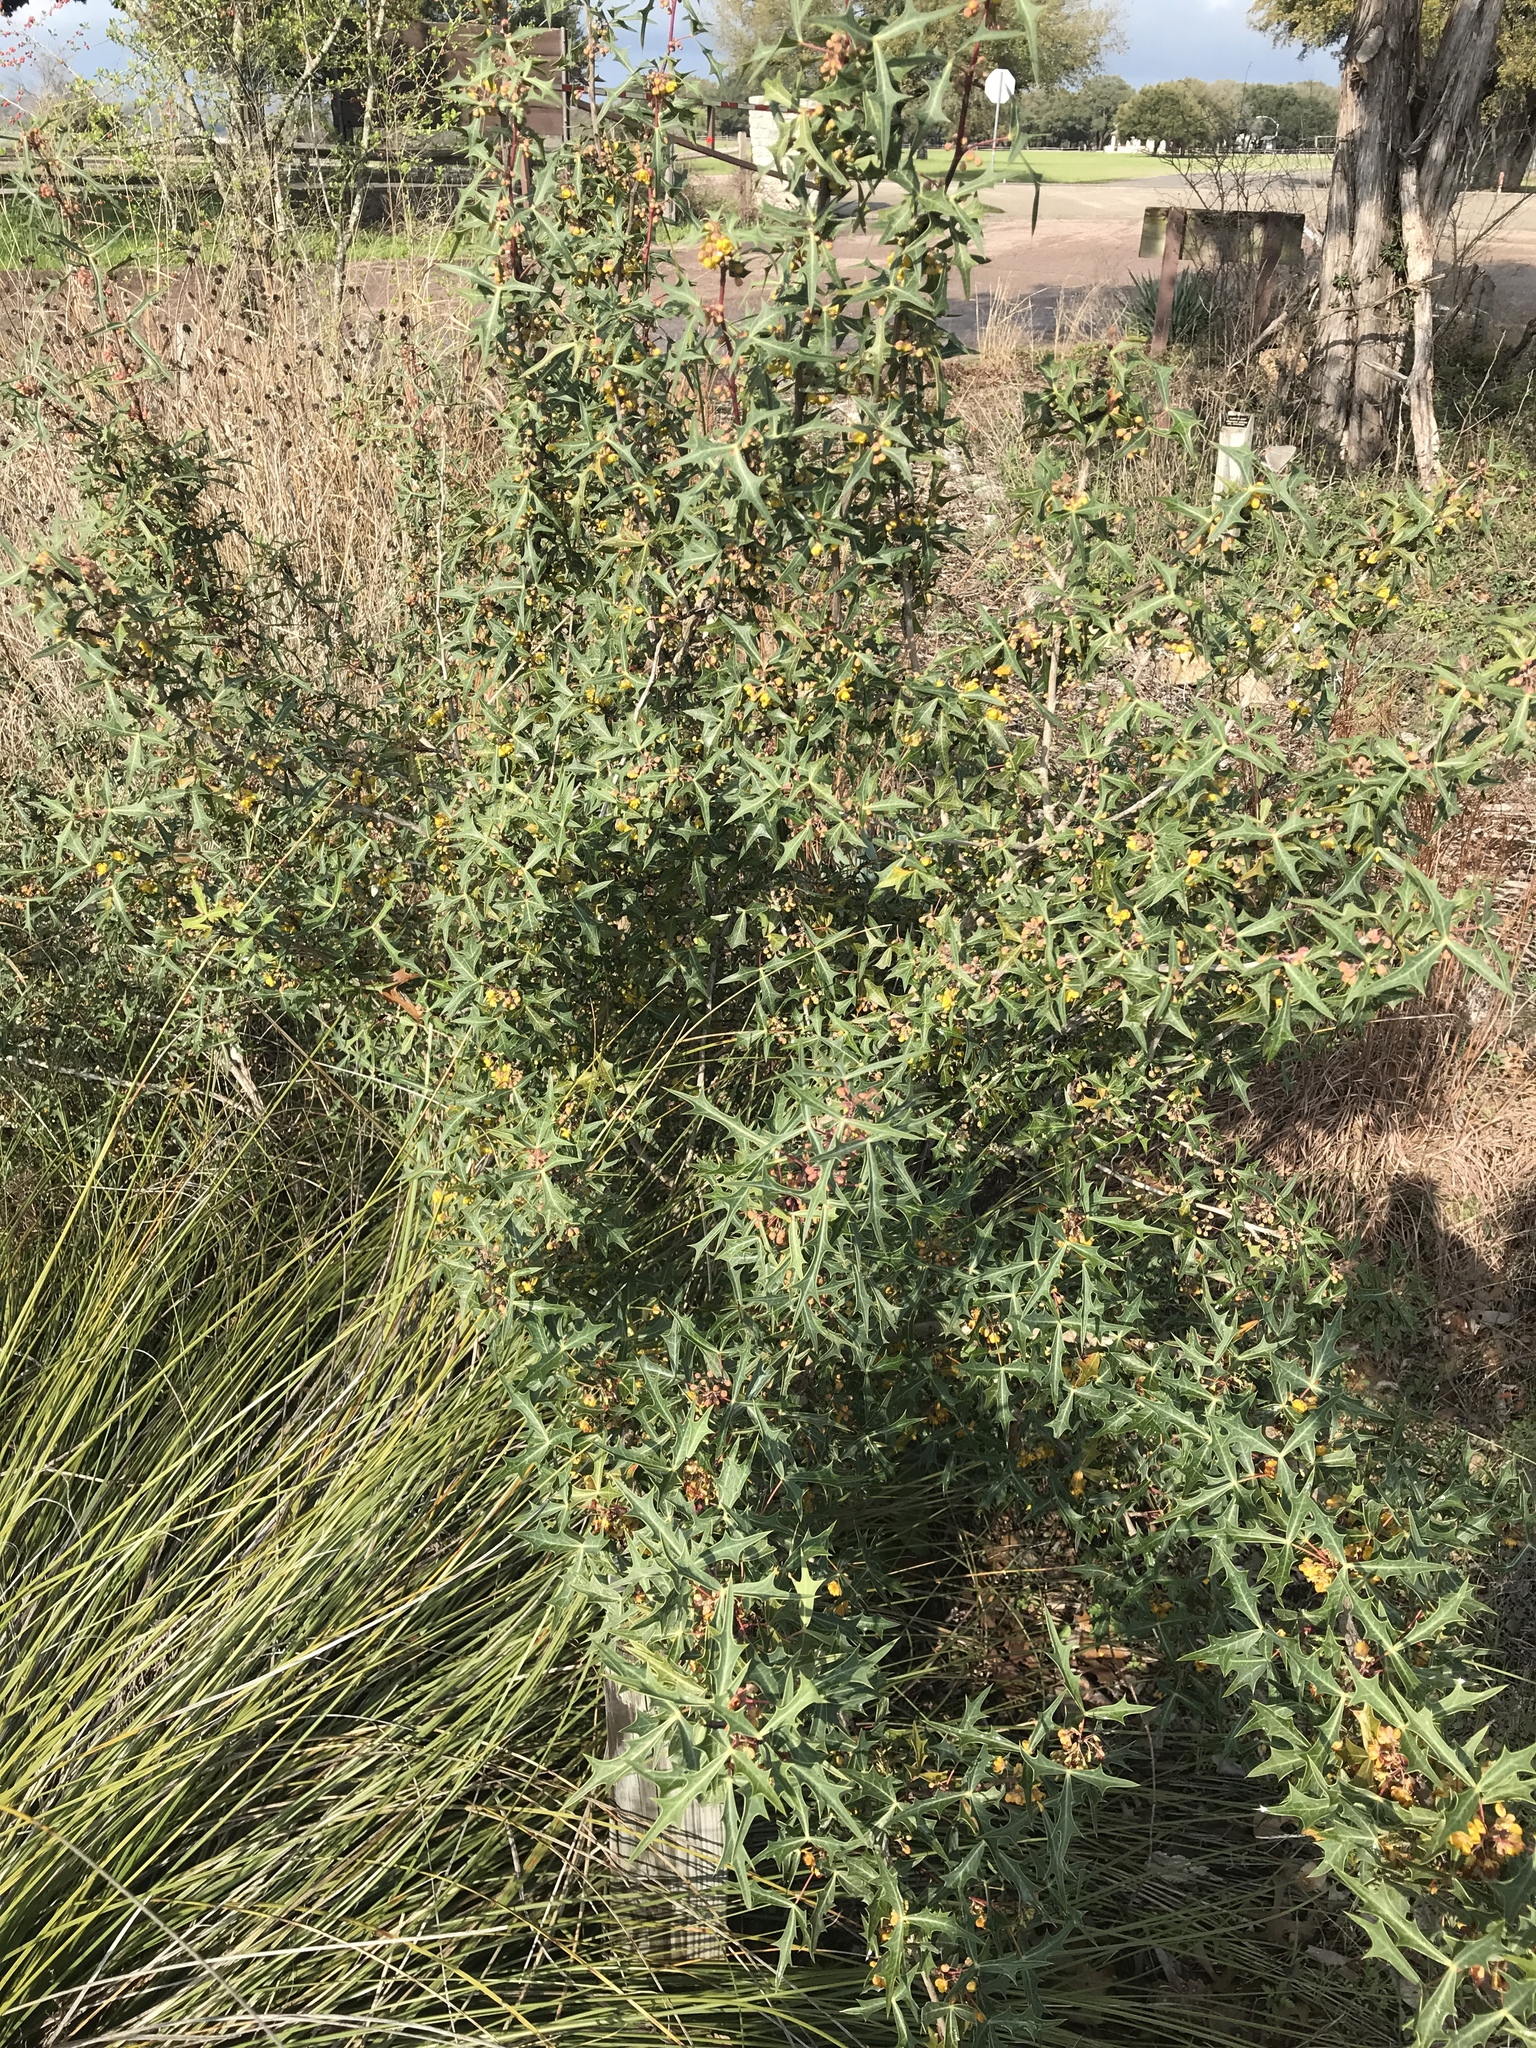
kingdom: Plantae
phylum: Tracheophyta
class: Magnoliopsida
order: Ranunculales
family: Berberidaceae
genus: Alloberberis
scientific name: Alloberberis trifoliolata
